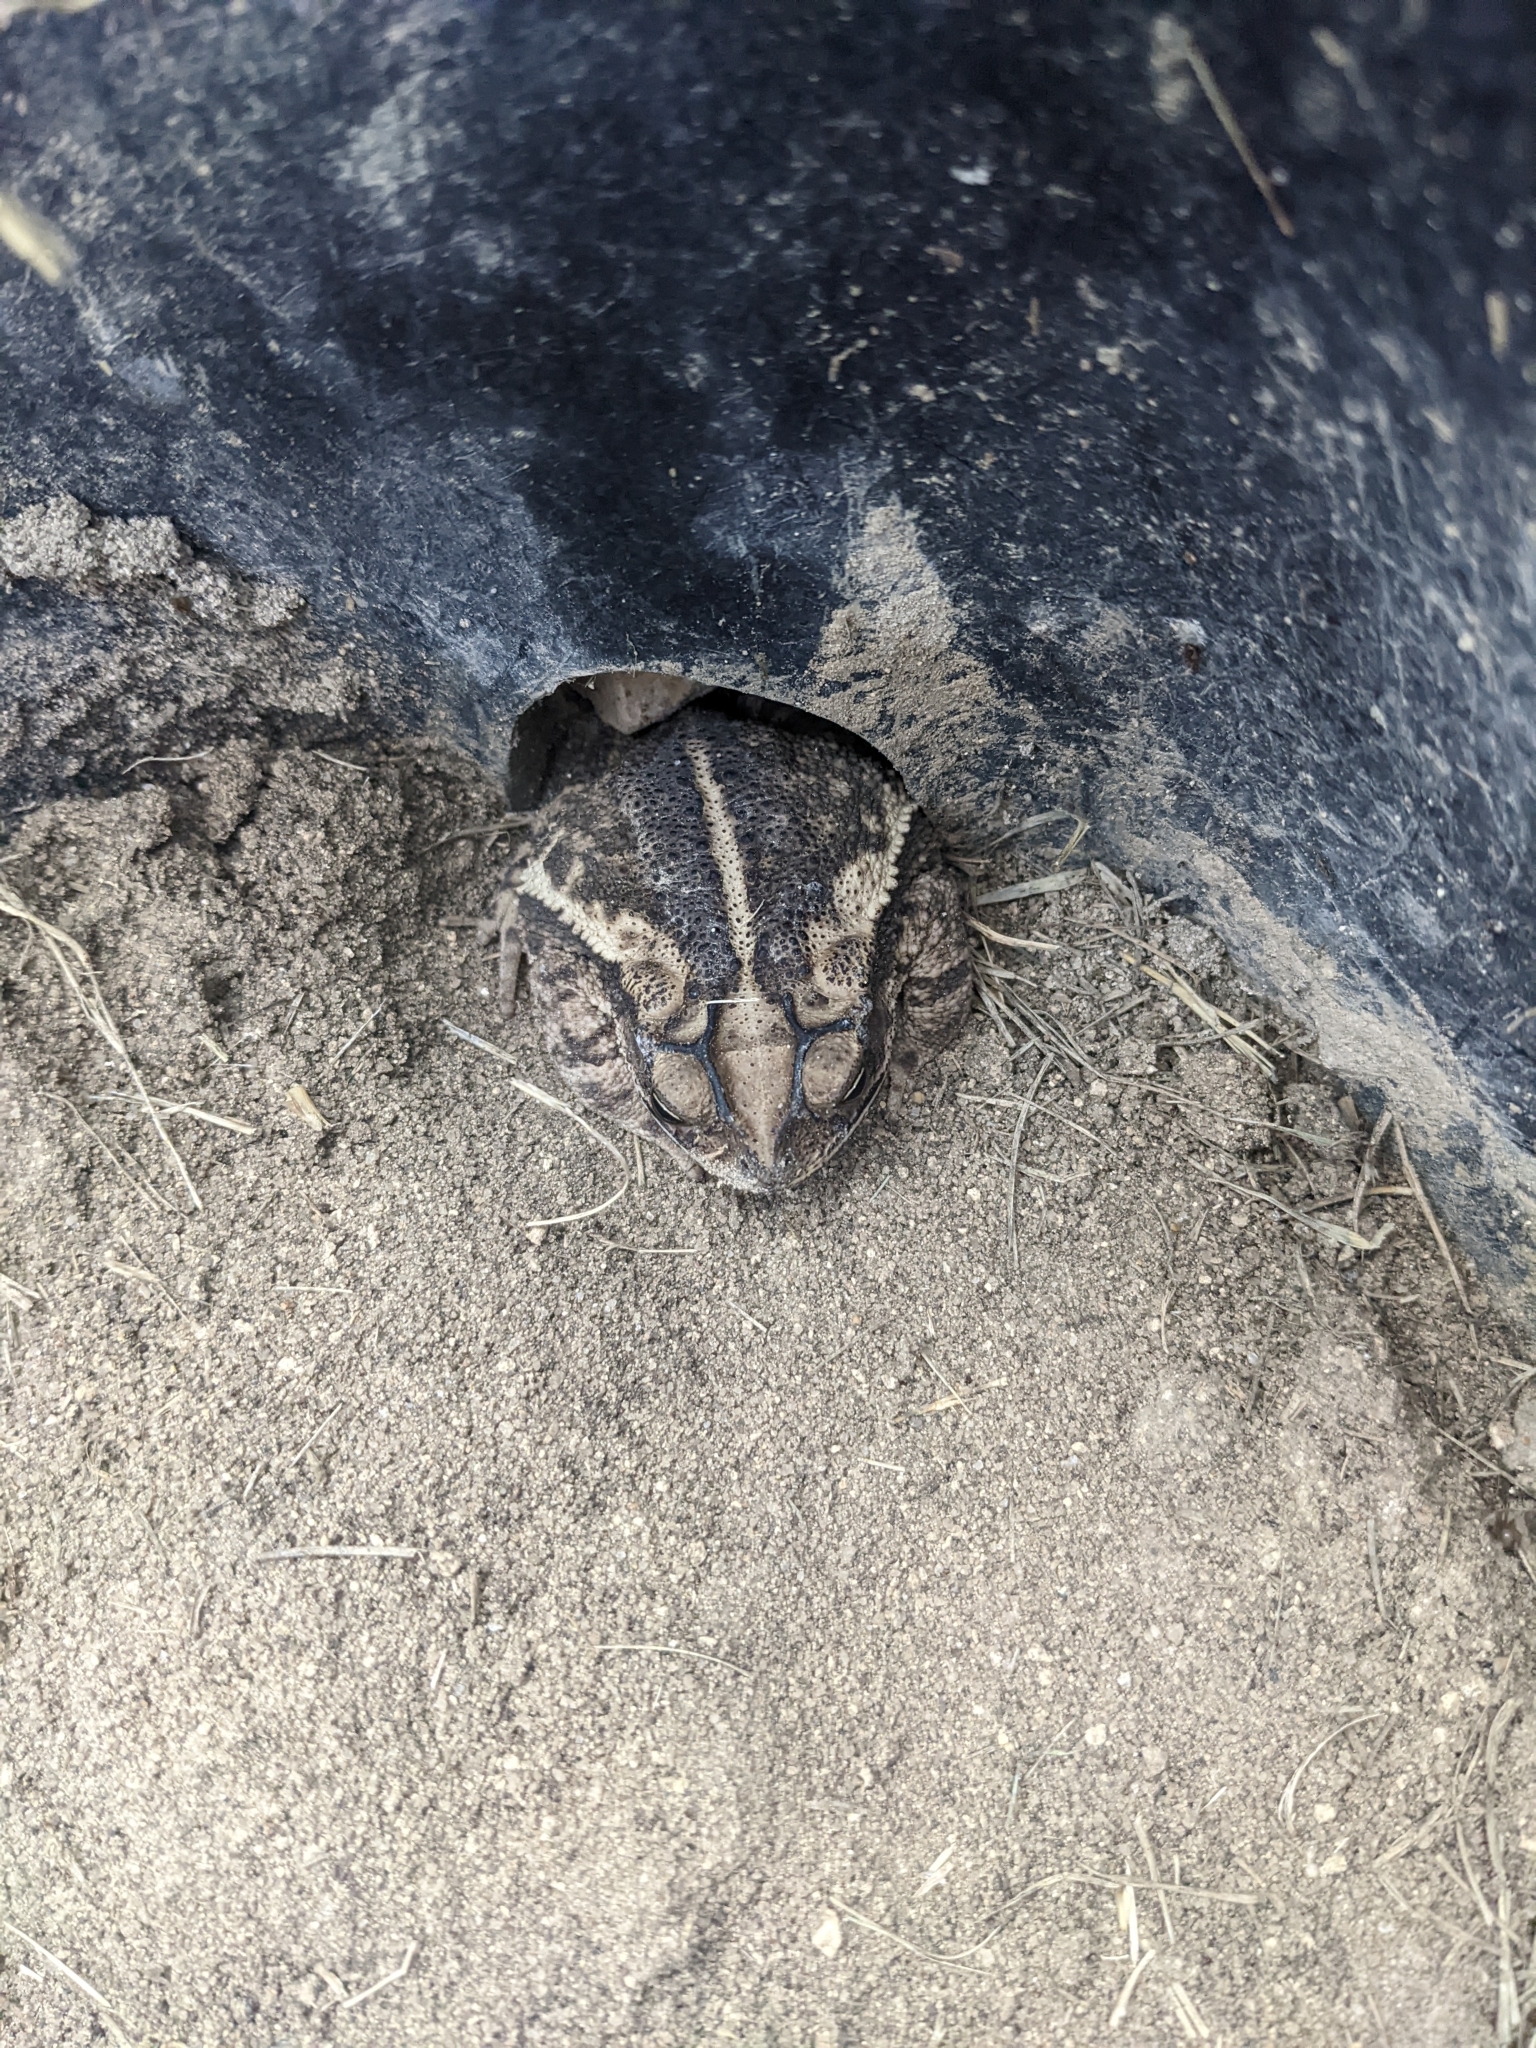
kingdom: Animalia
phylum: Chordata
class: Amphibia
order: Anura
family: Bufonidae
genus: Incilius
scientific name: Incilius nebulifer
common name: Gulf coast toad
